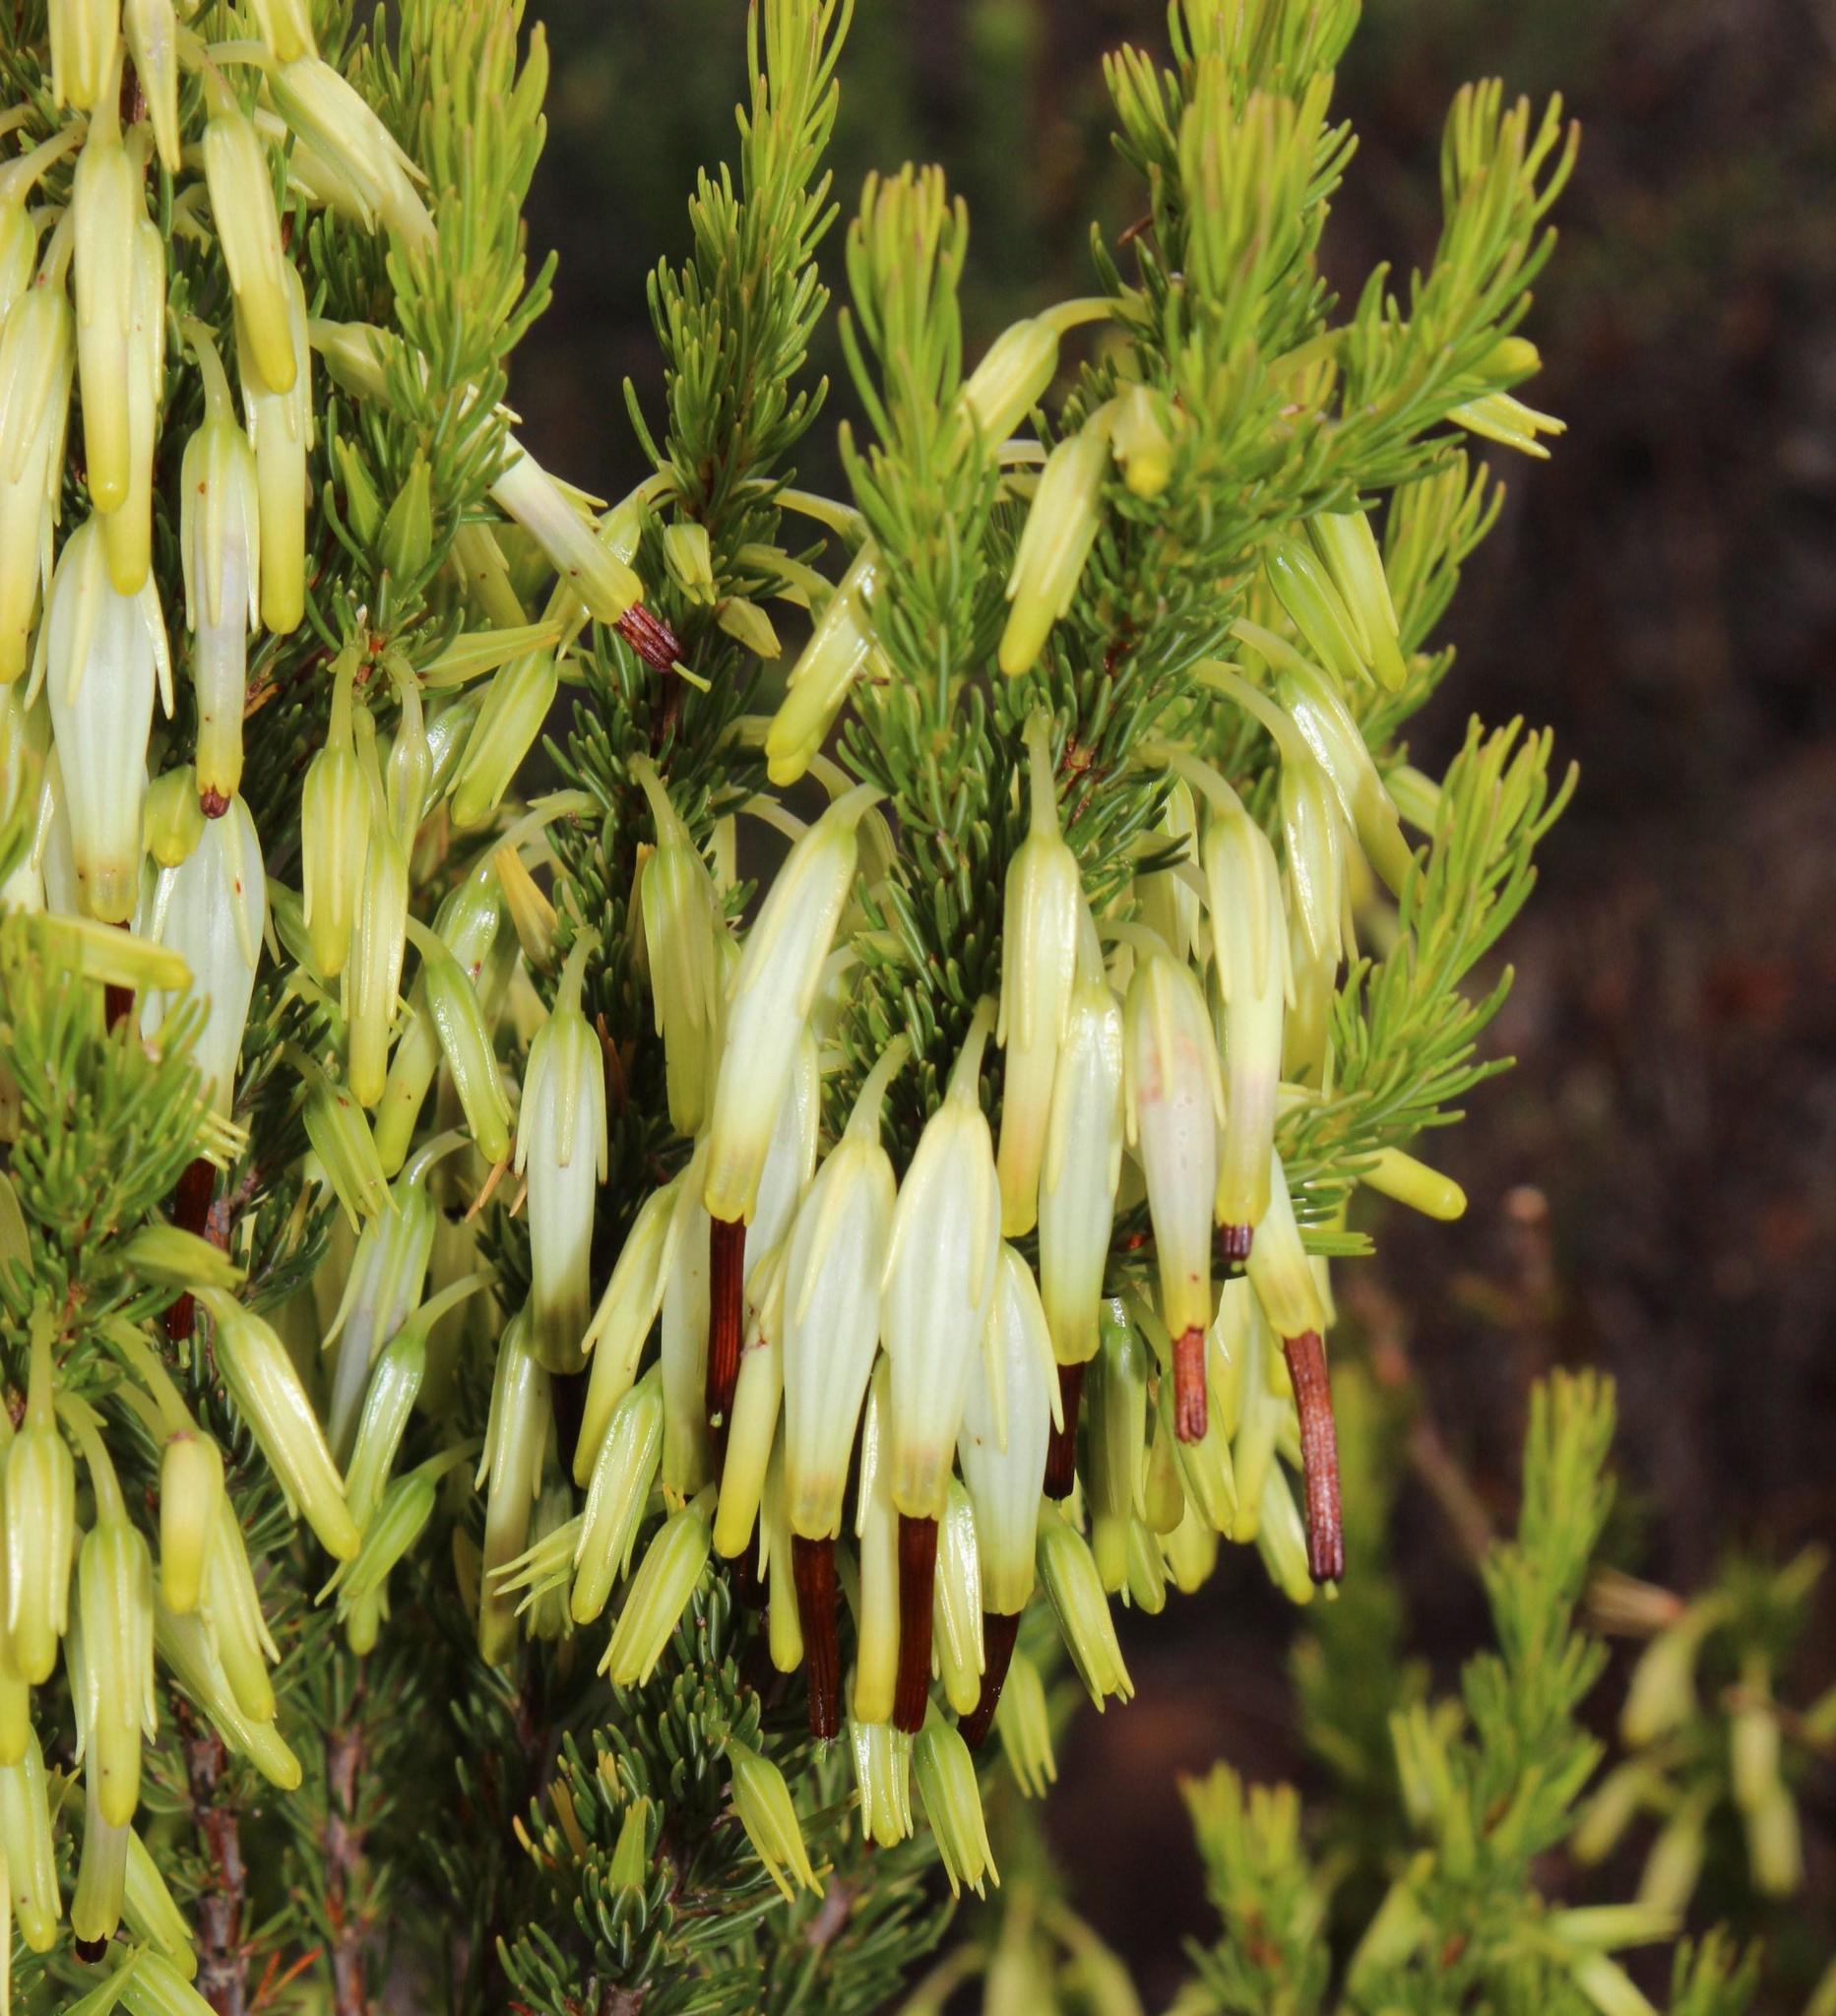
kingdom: Plantae
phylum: Tracheophyta
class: Magnoliopsida
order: Ericales
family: Ericaceae
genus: Erica
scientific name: Erica plukenetii
